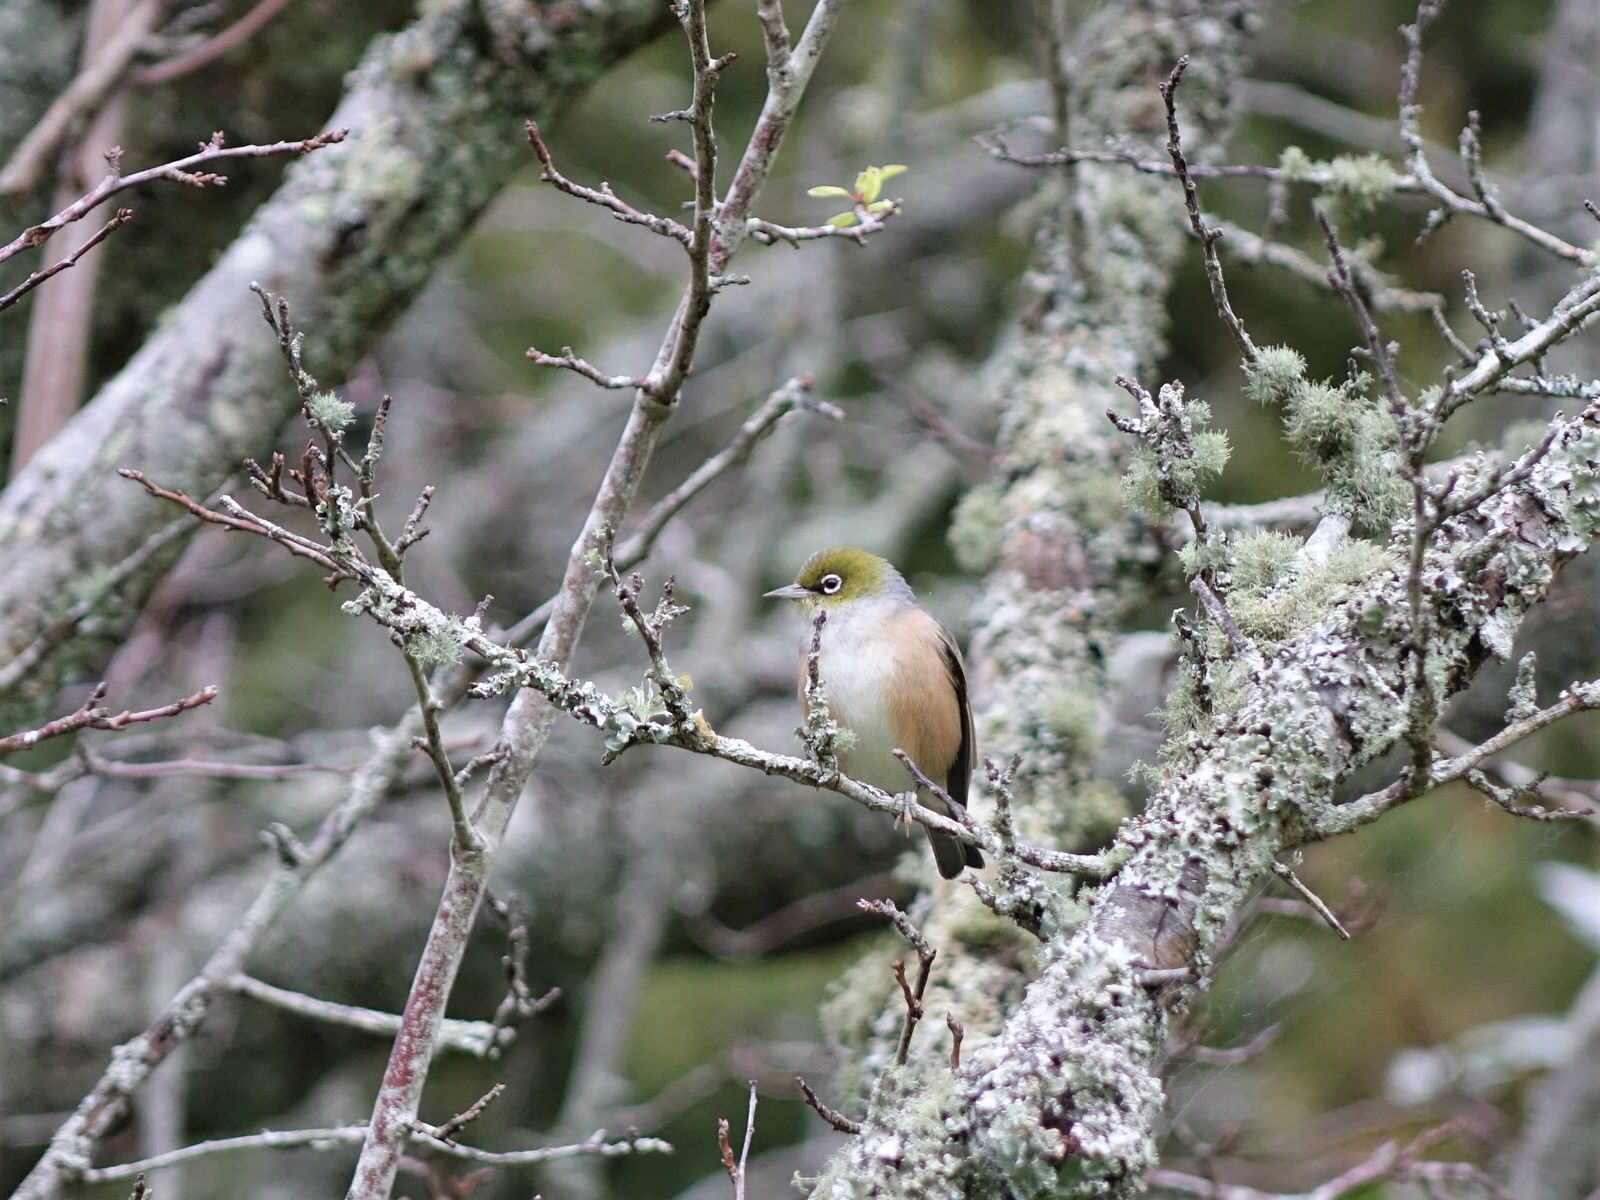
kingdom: Animalia
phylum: Chordata
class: Aves
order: Passeriformes
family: Zosteropidae
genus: Zosterops
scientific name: Zosterops lateralis
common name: Silvereye
